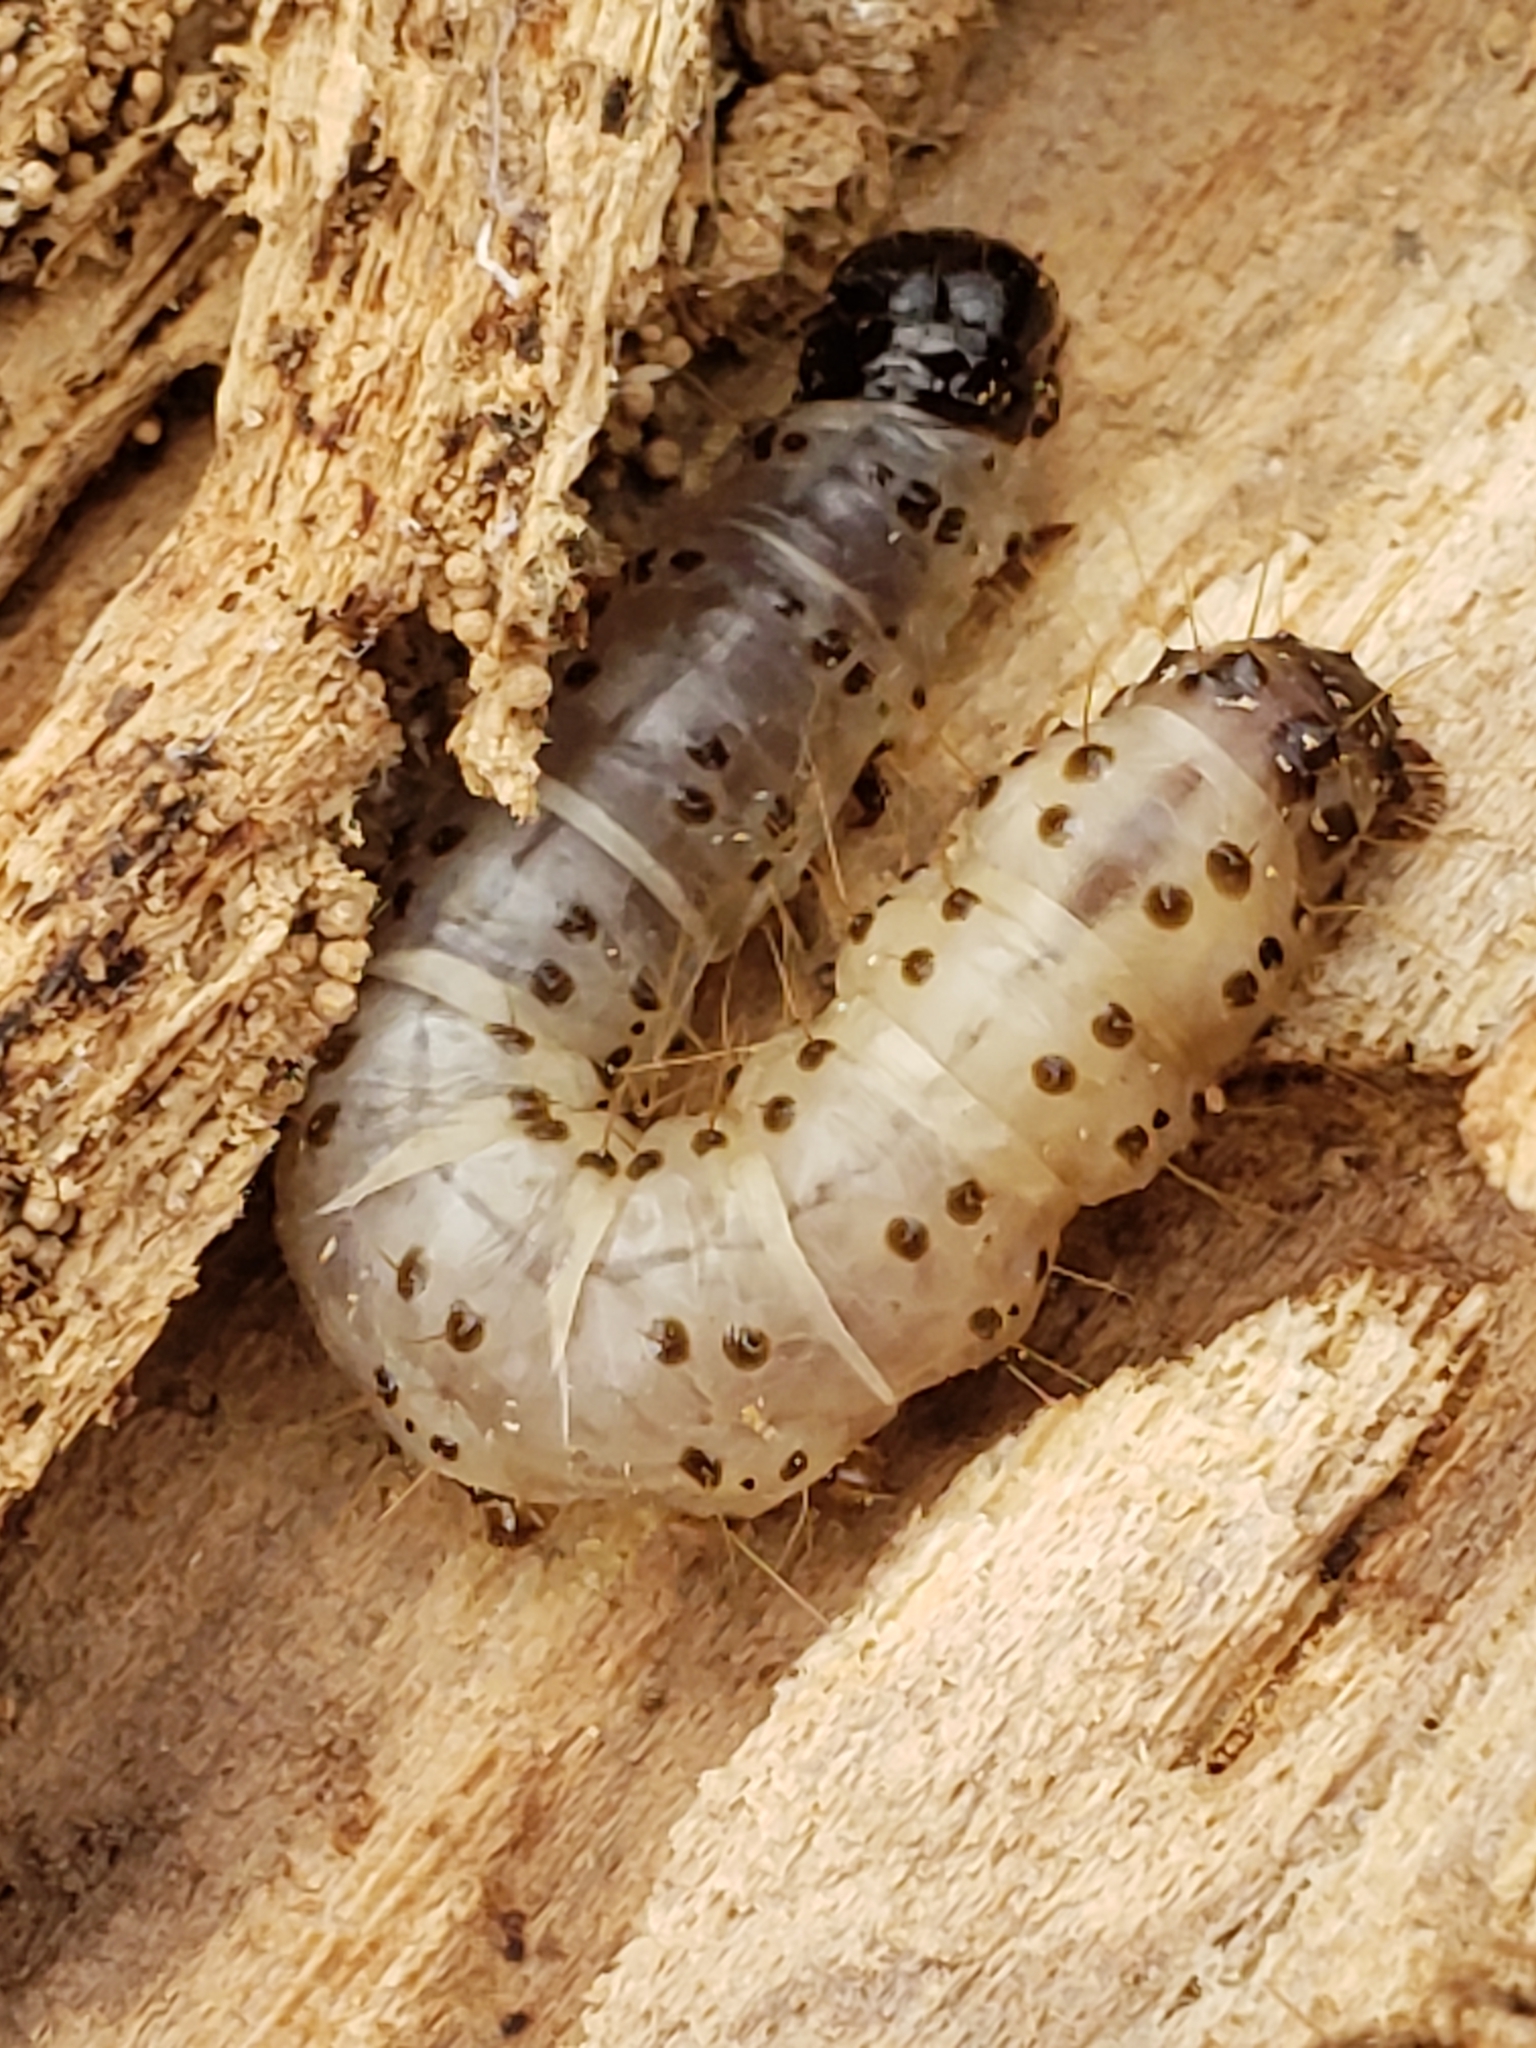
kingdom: Animalia
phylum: Arthropoda
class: Insecta
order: Lepidoptera
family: Erebidae
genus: Scolecocampa
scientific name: Scolecocampa liburna
